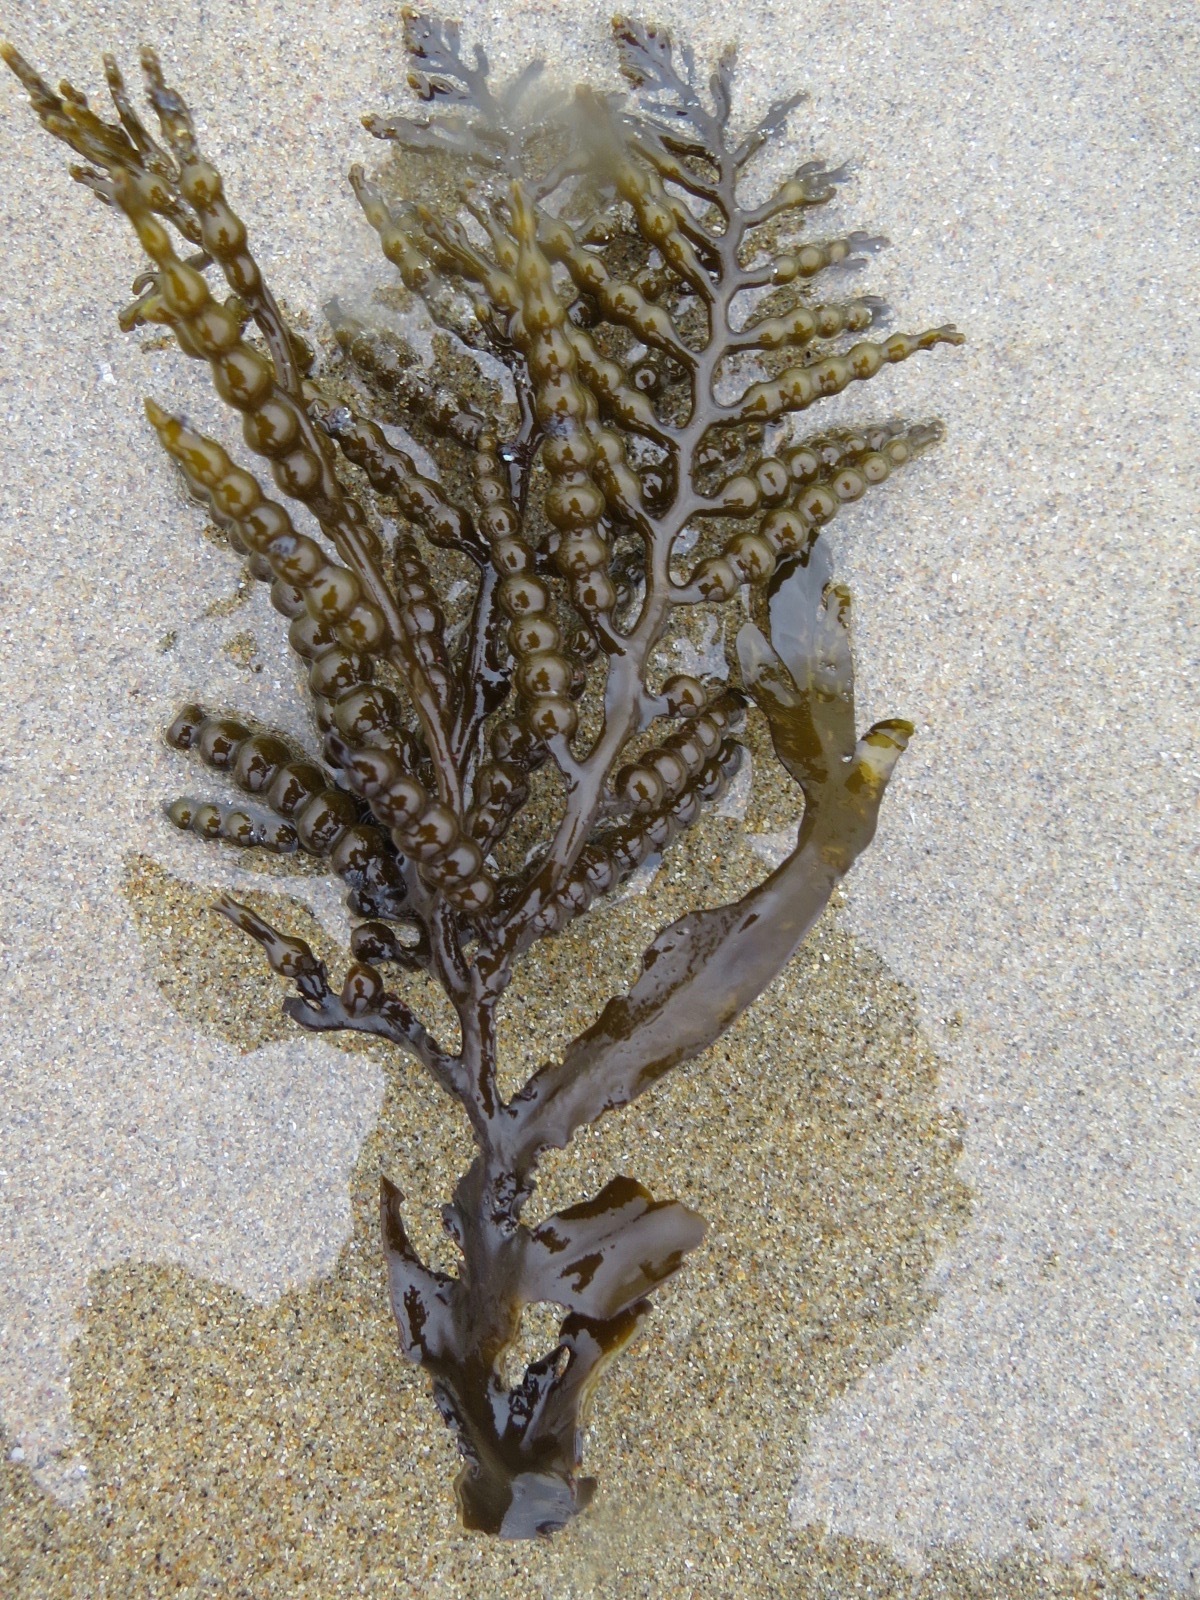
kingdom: Chromista
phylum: Ochrophyta
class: Phaeophyceae
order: Fucales
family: Sargassaceae
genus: Stephanocystis
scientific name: Stephanocystis
